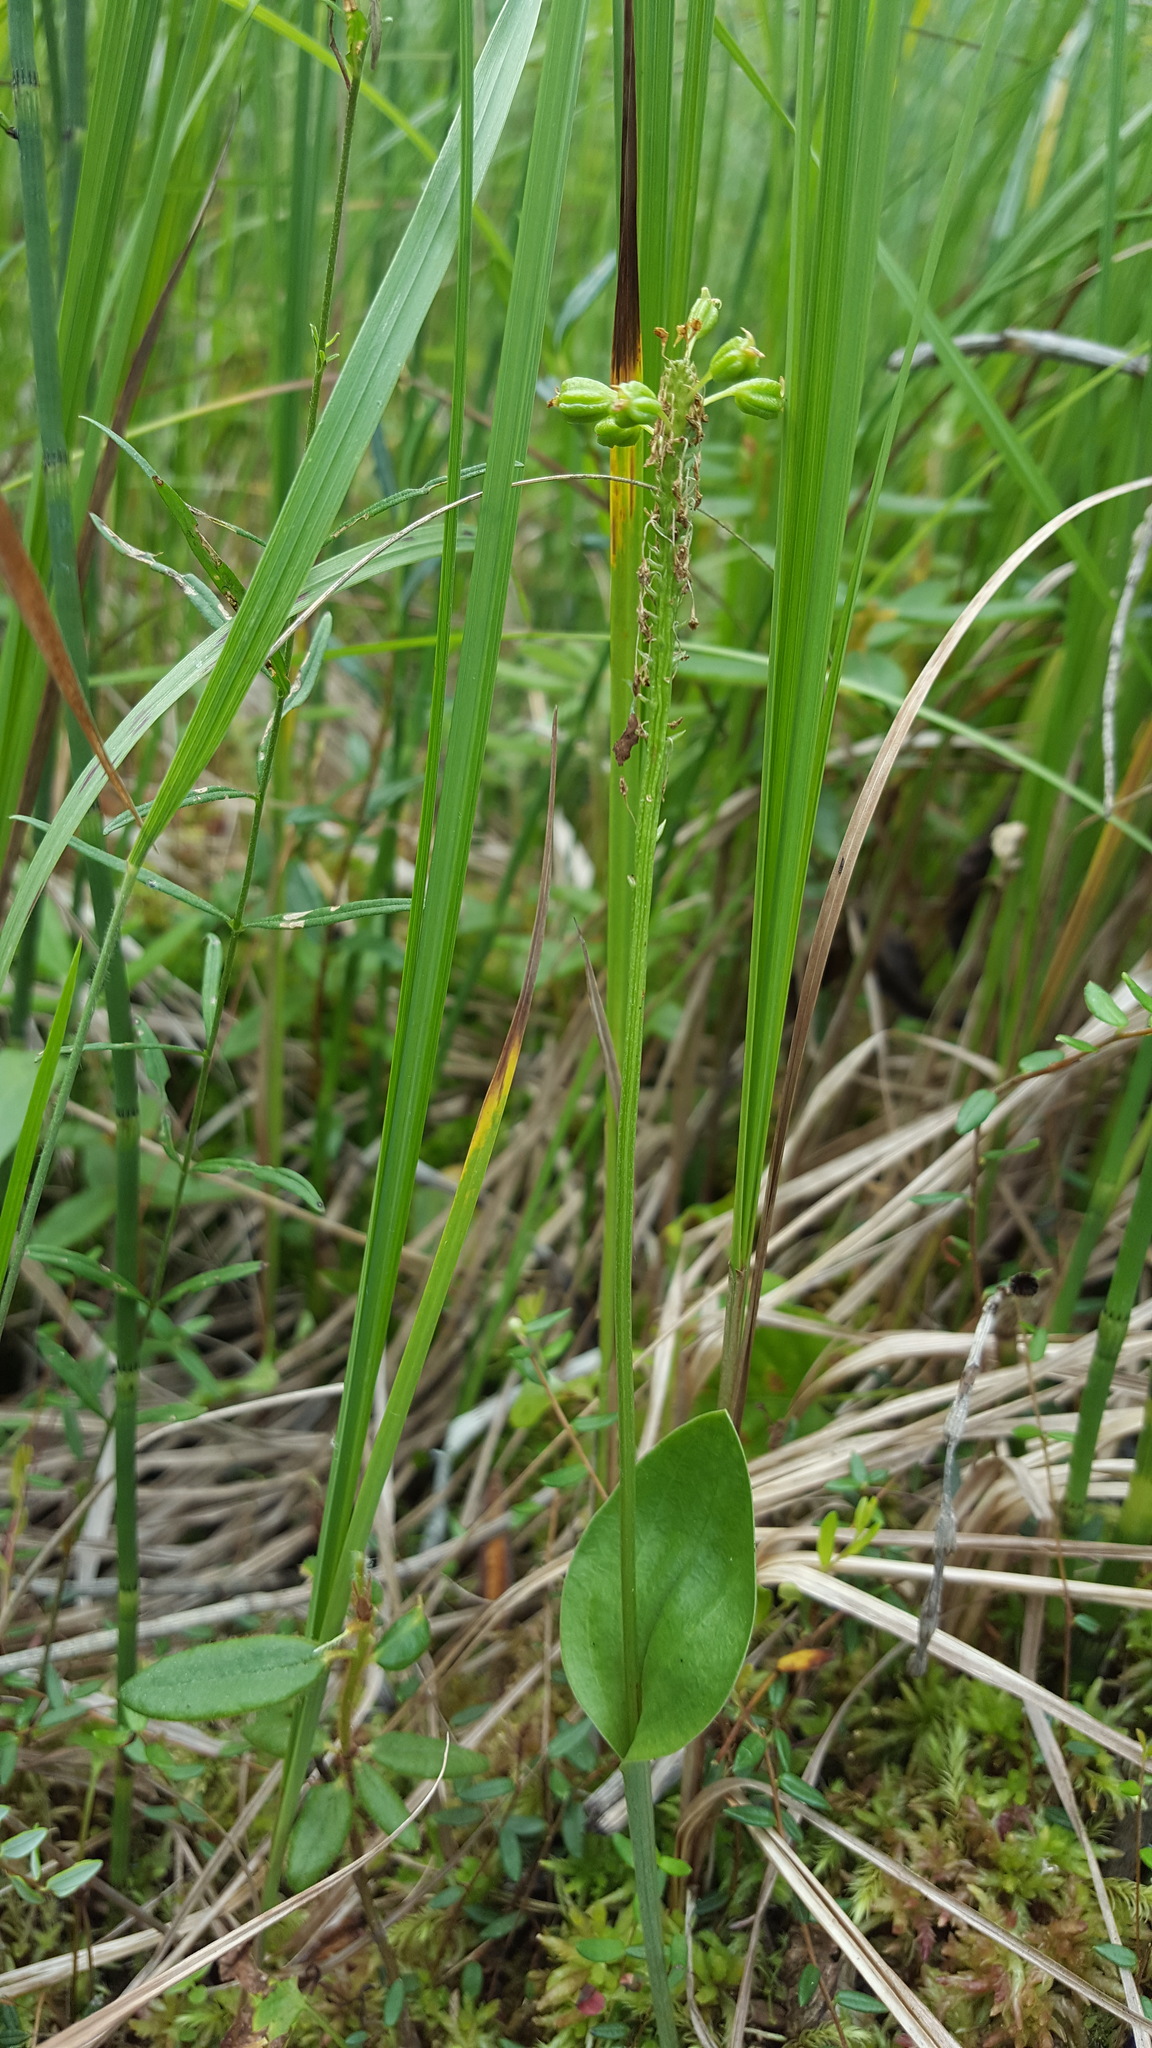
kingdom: Plantae
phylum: Tracheophyta
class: Liliopsida
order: Asparagales
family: Orchidaceae
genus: Malaxis
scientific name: Malaxis unifolia
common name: Green adder's-mouth
